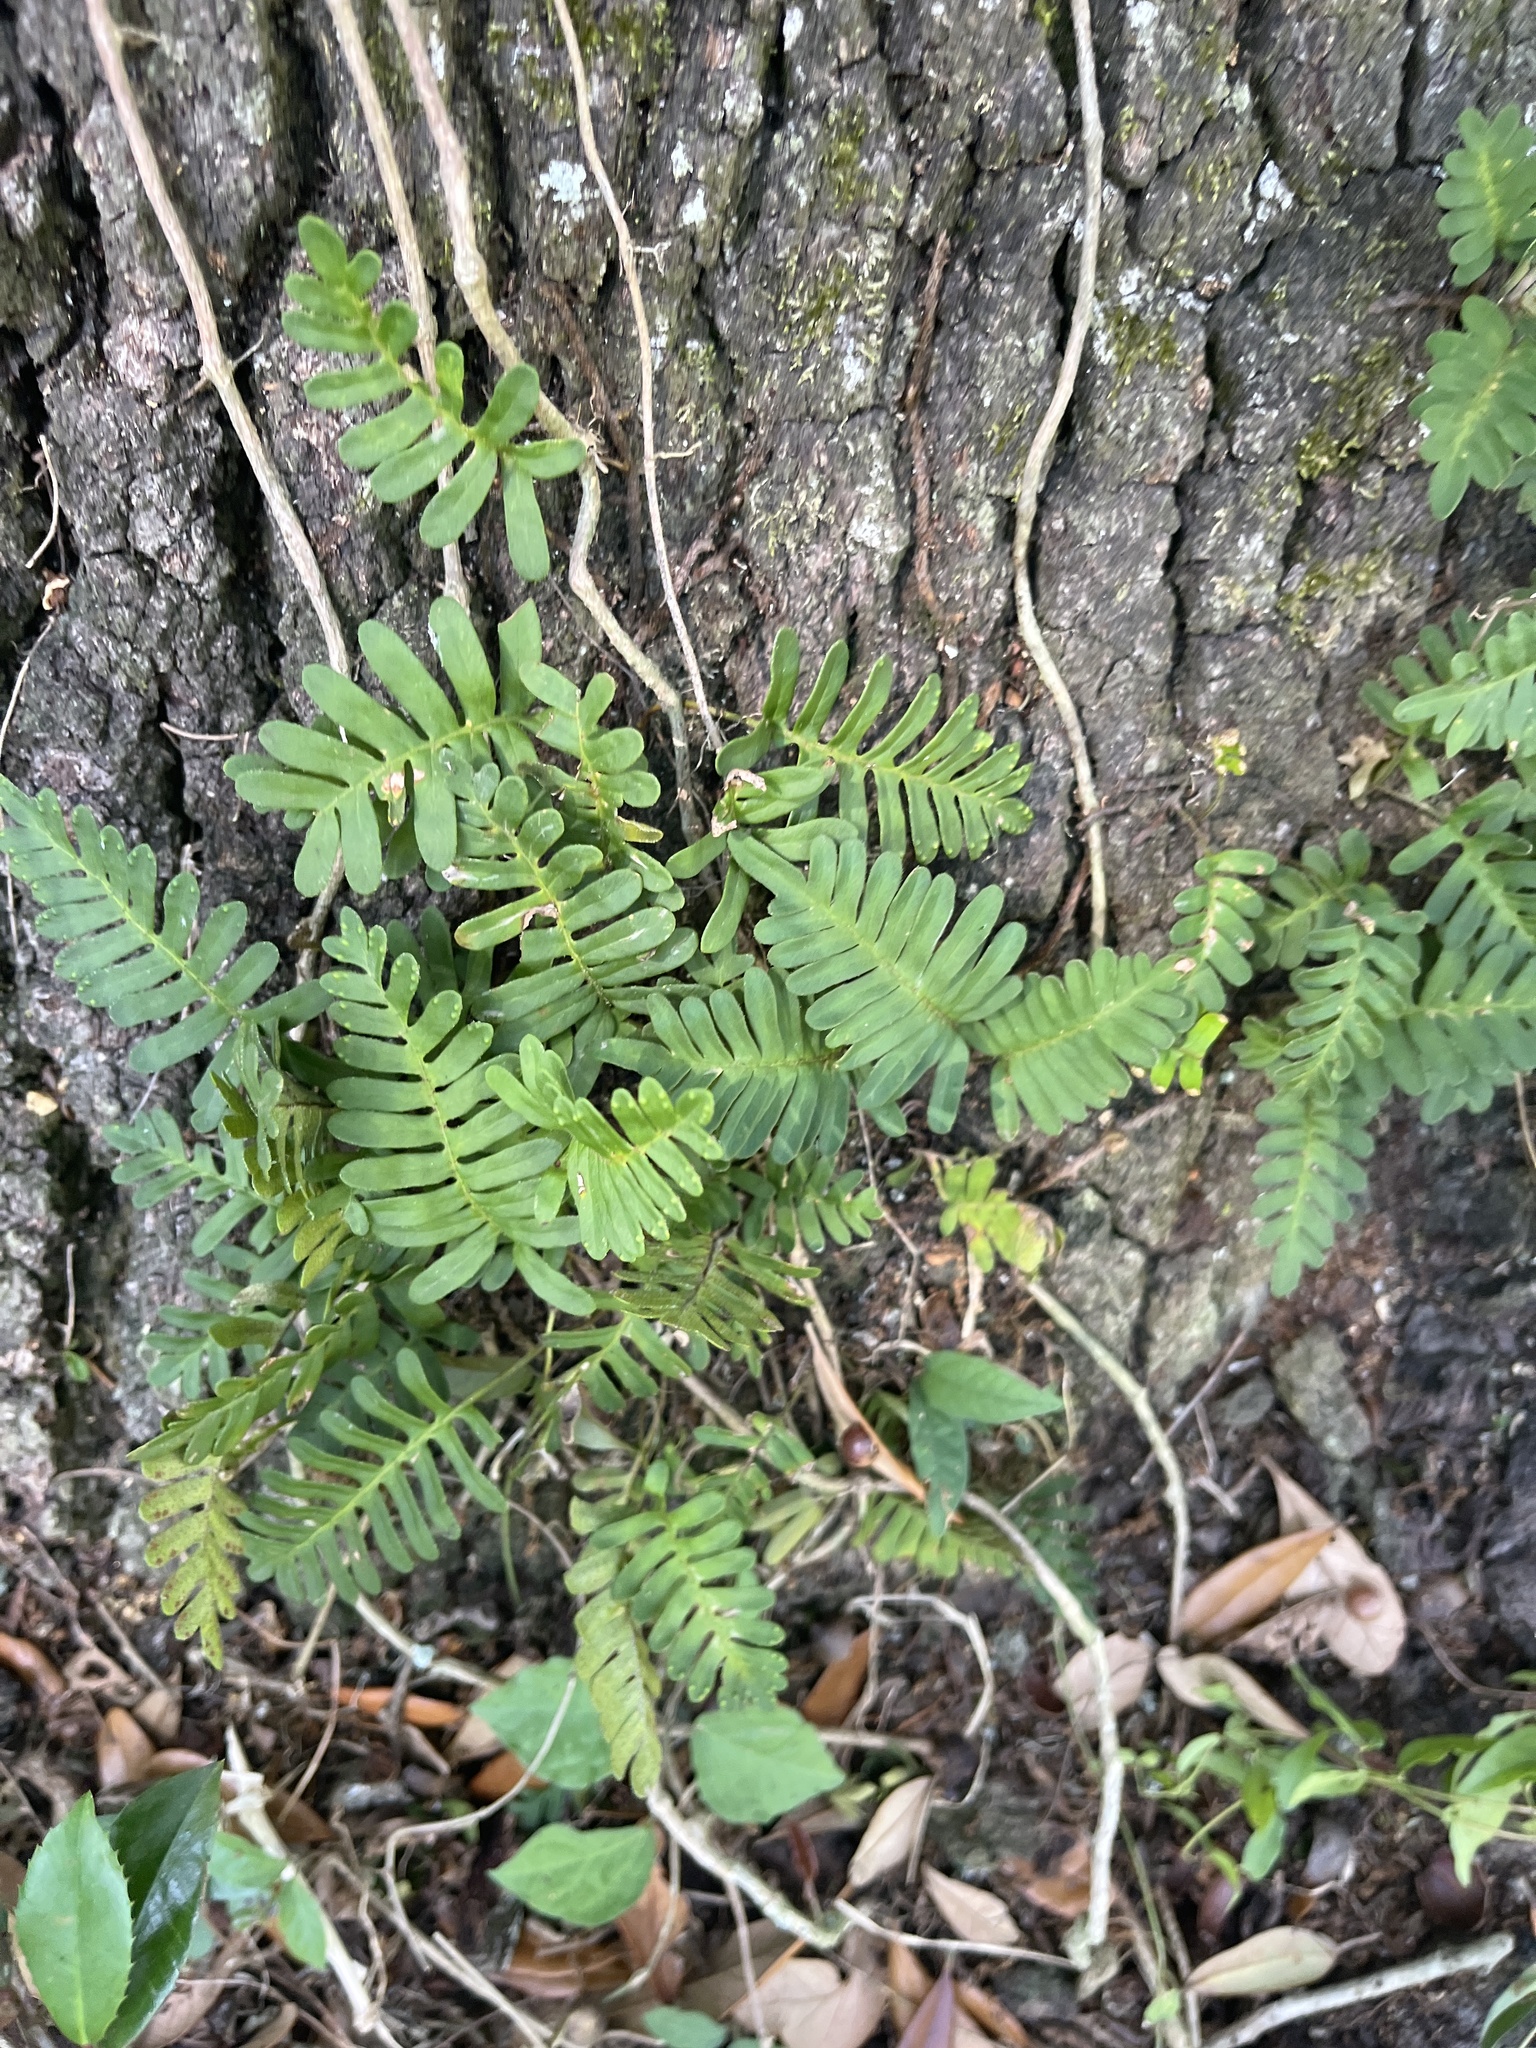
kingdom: Plantae
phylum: Tracheophyta
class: Polypodiopsida
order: Polypodiales
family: Polypodiaceae
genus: Pleopeltis
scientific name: Pleopeltis michauxiana
